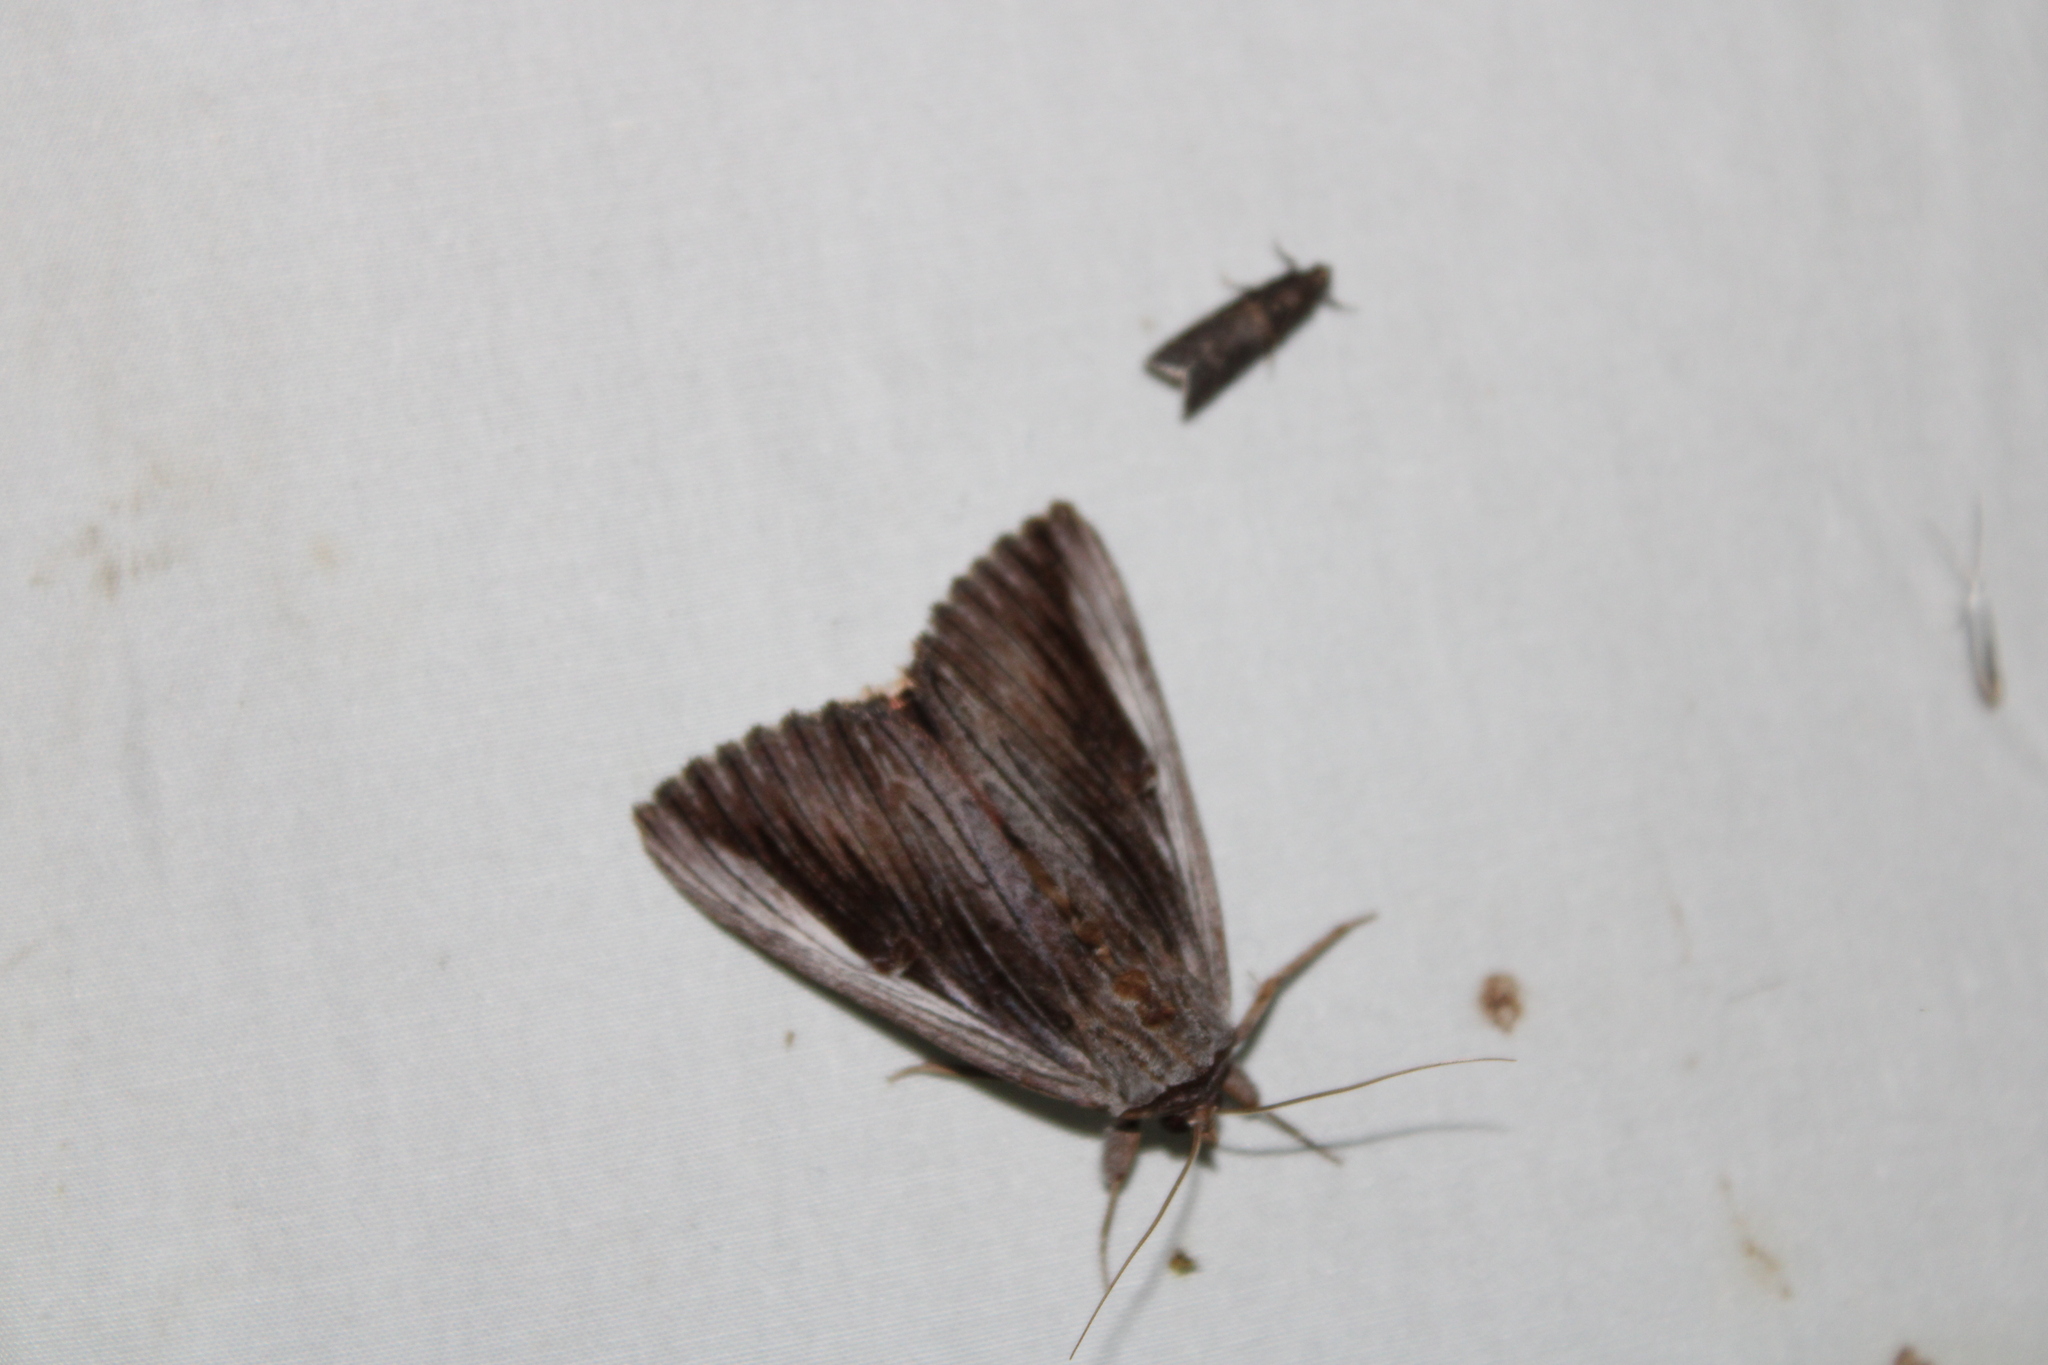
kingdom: Animalia
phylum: Arthropoda
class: Insecta
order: Lepidoptera
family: Erebidae
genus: Catocala
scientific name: Catocala herodias
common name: Pine barrens underwing
